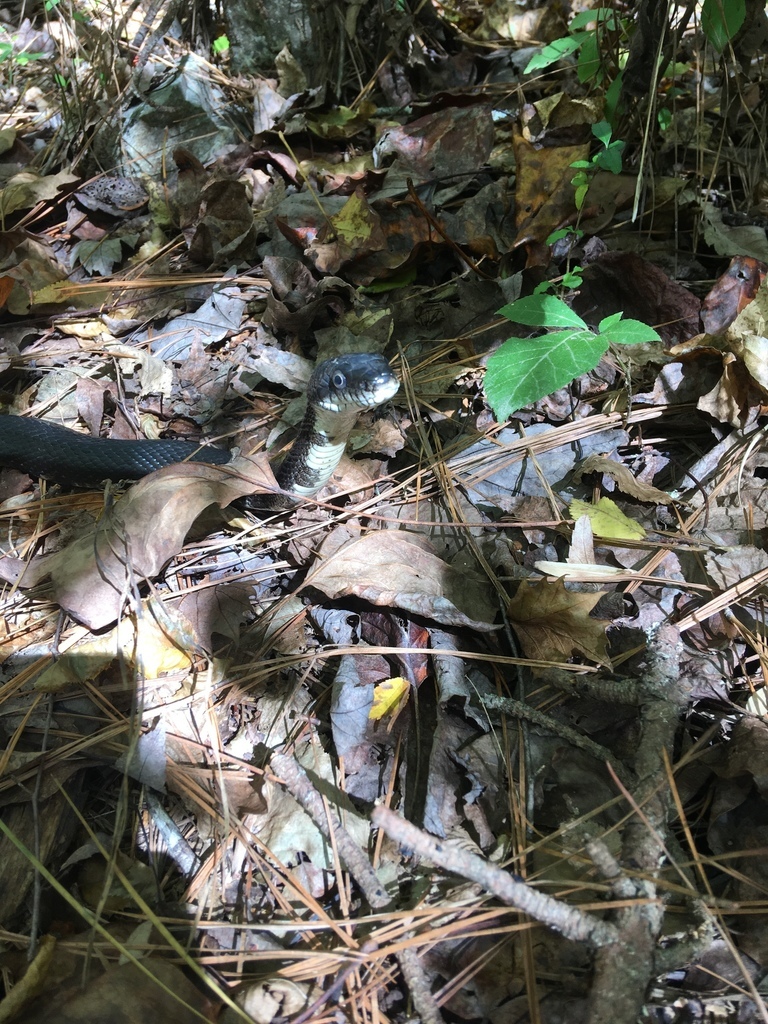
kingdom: Animalia
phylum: Chordata
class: Squamata
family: Colubridae
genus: Pantherophis
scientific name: Pantherophis alleghaniensis
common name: Eastern rat snake
